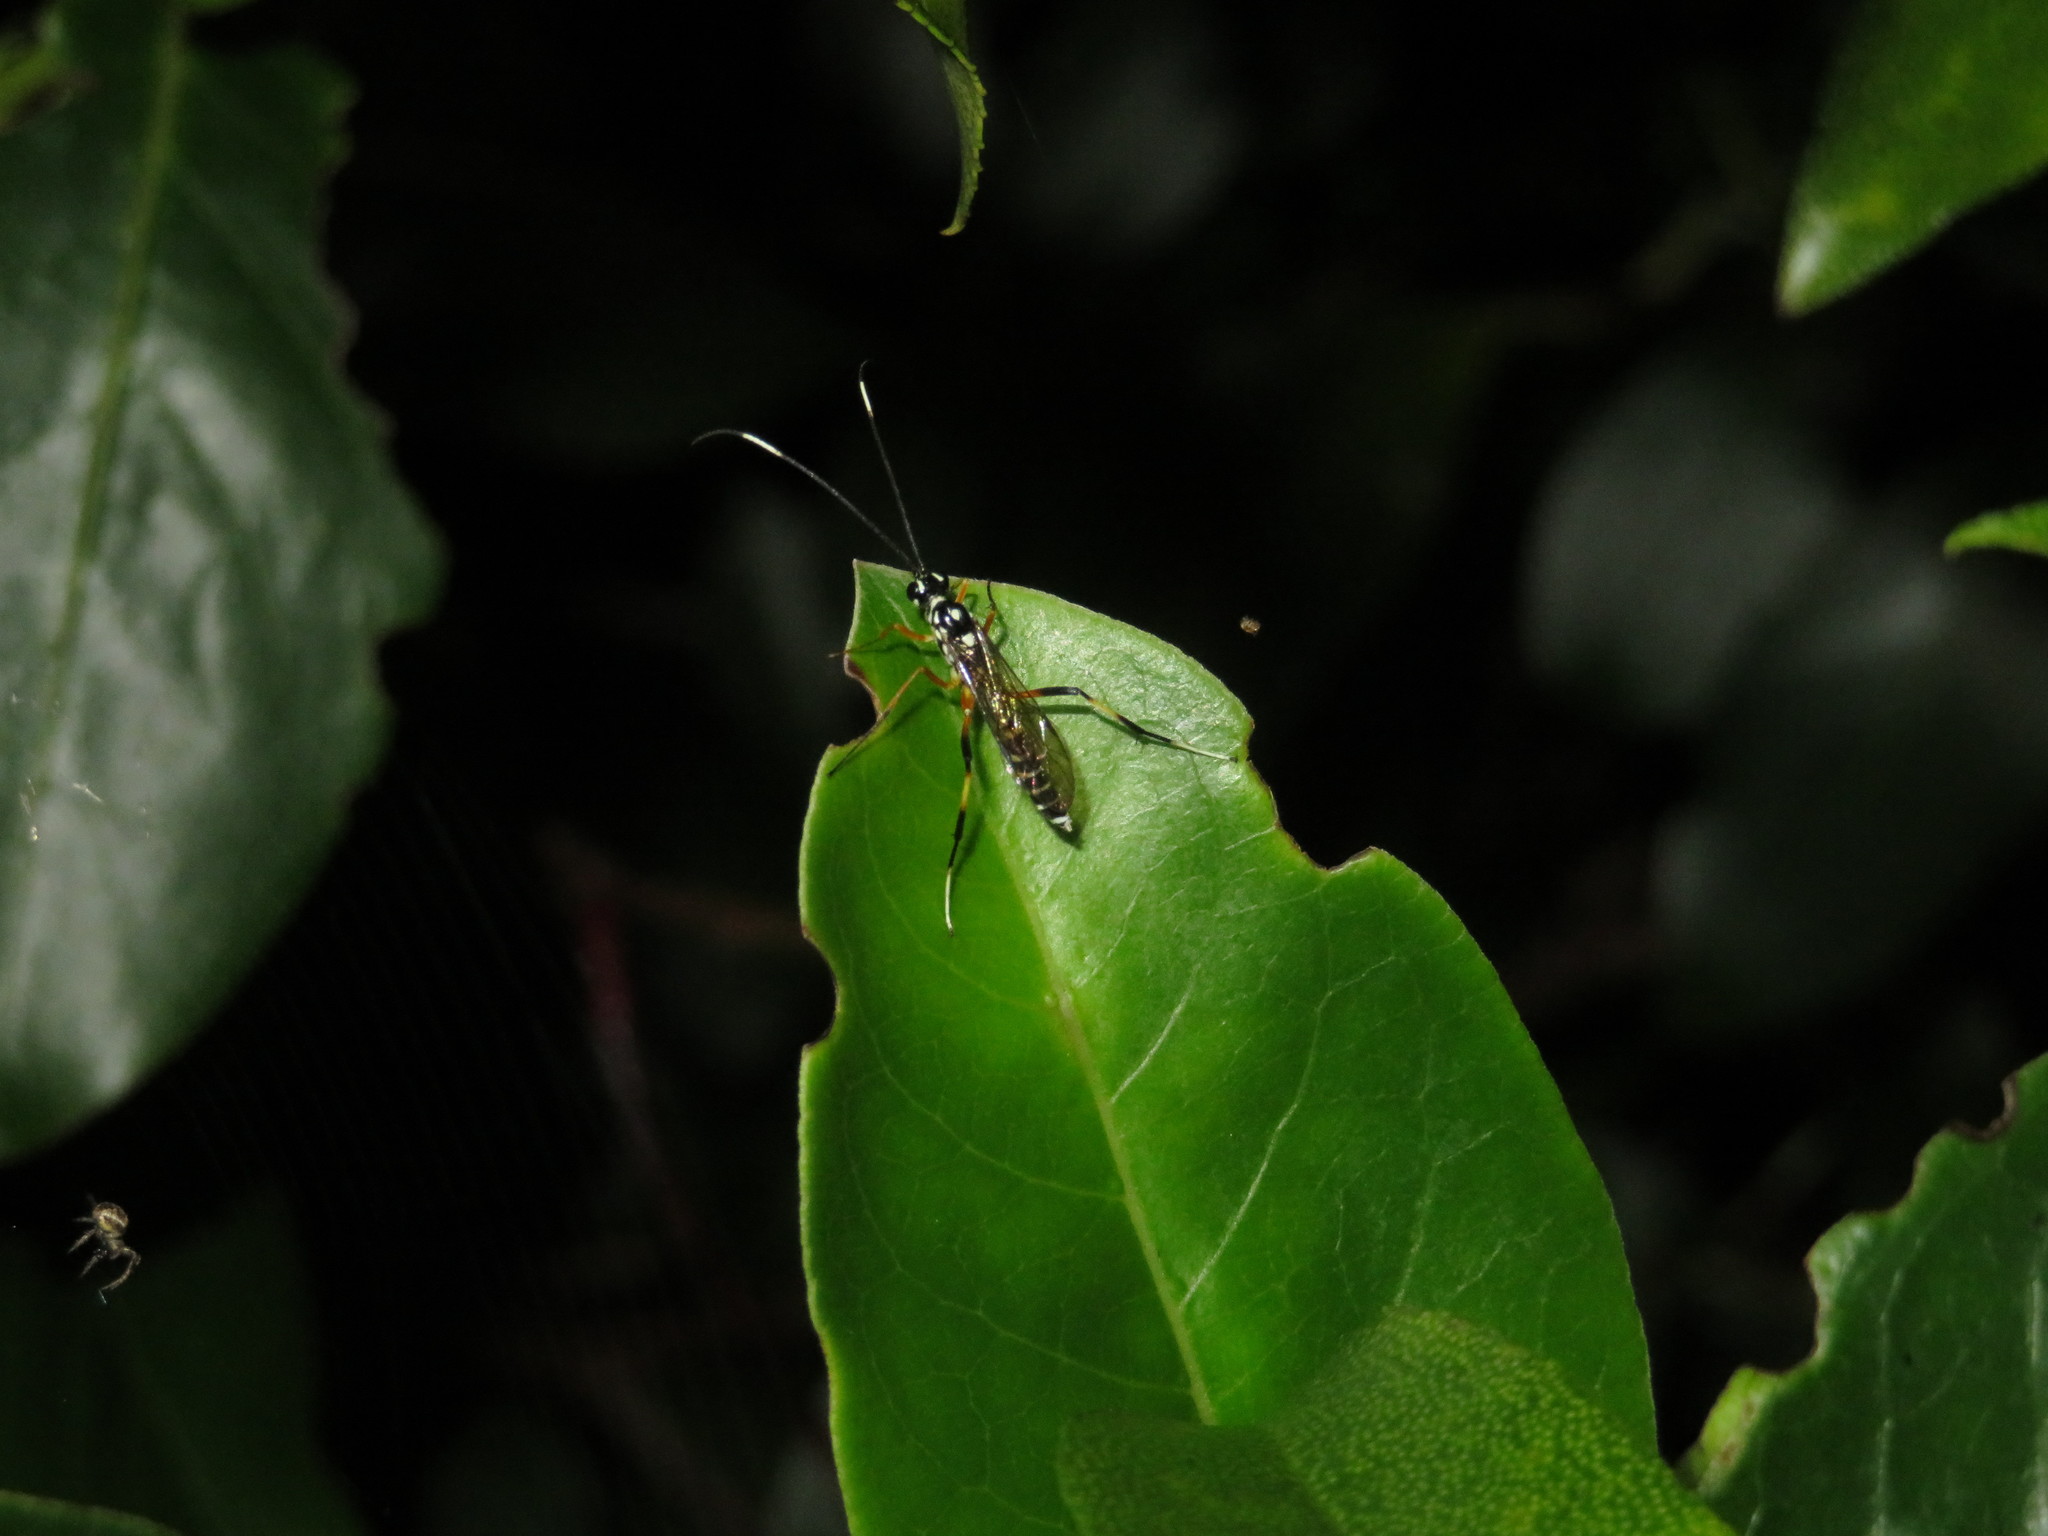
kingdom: Animalia
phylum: Arthropoda
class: Insecta
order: Hymenoptera
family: Ichneumonidae
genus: Xanthocryptus
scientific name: Xanthocryptus novozealandicus
